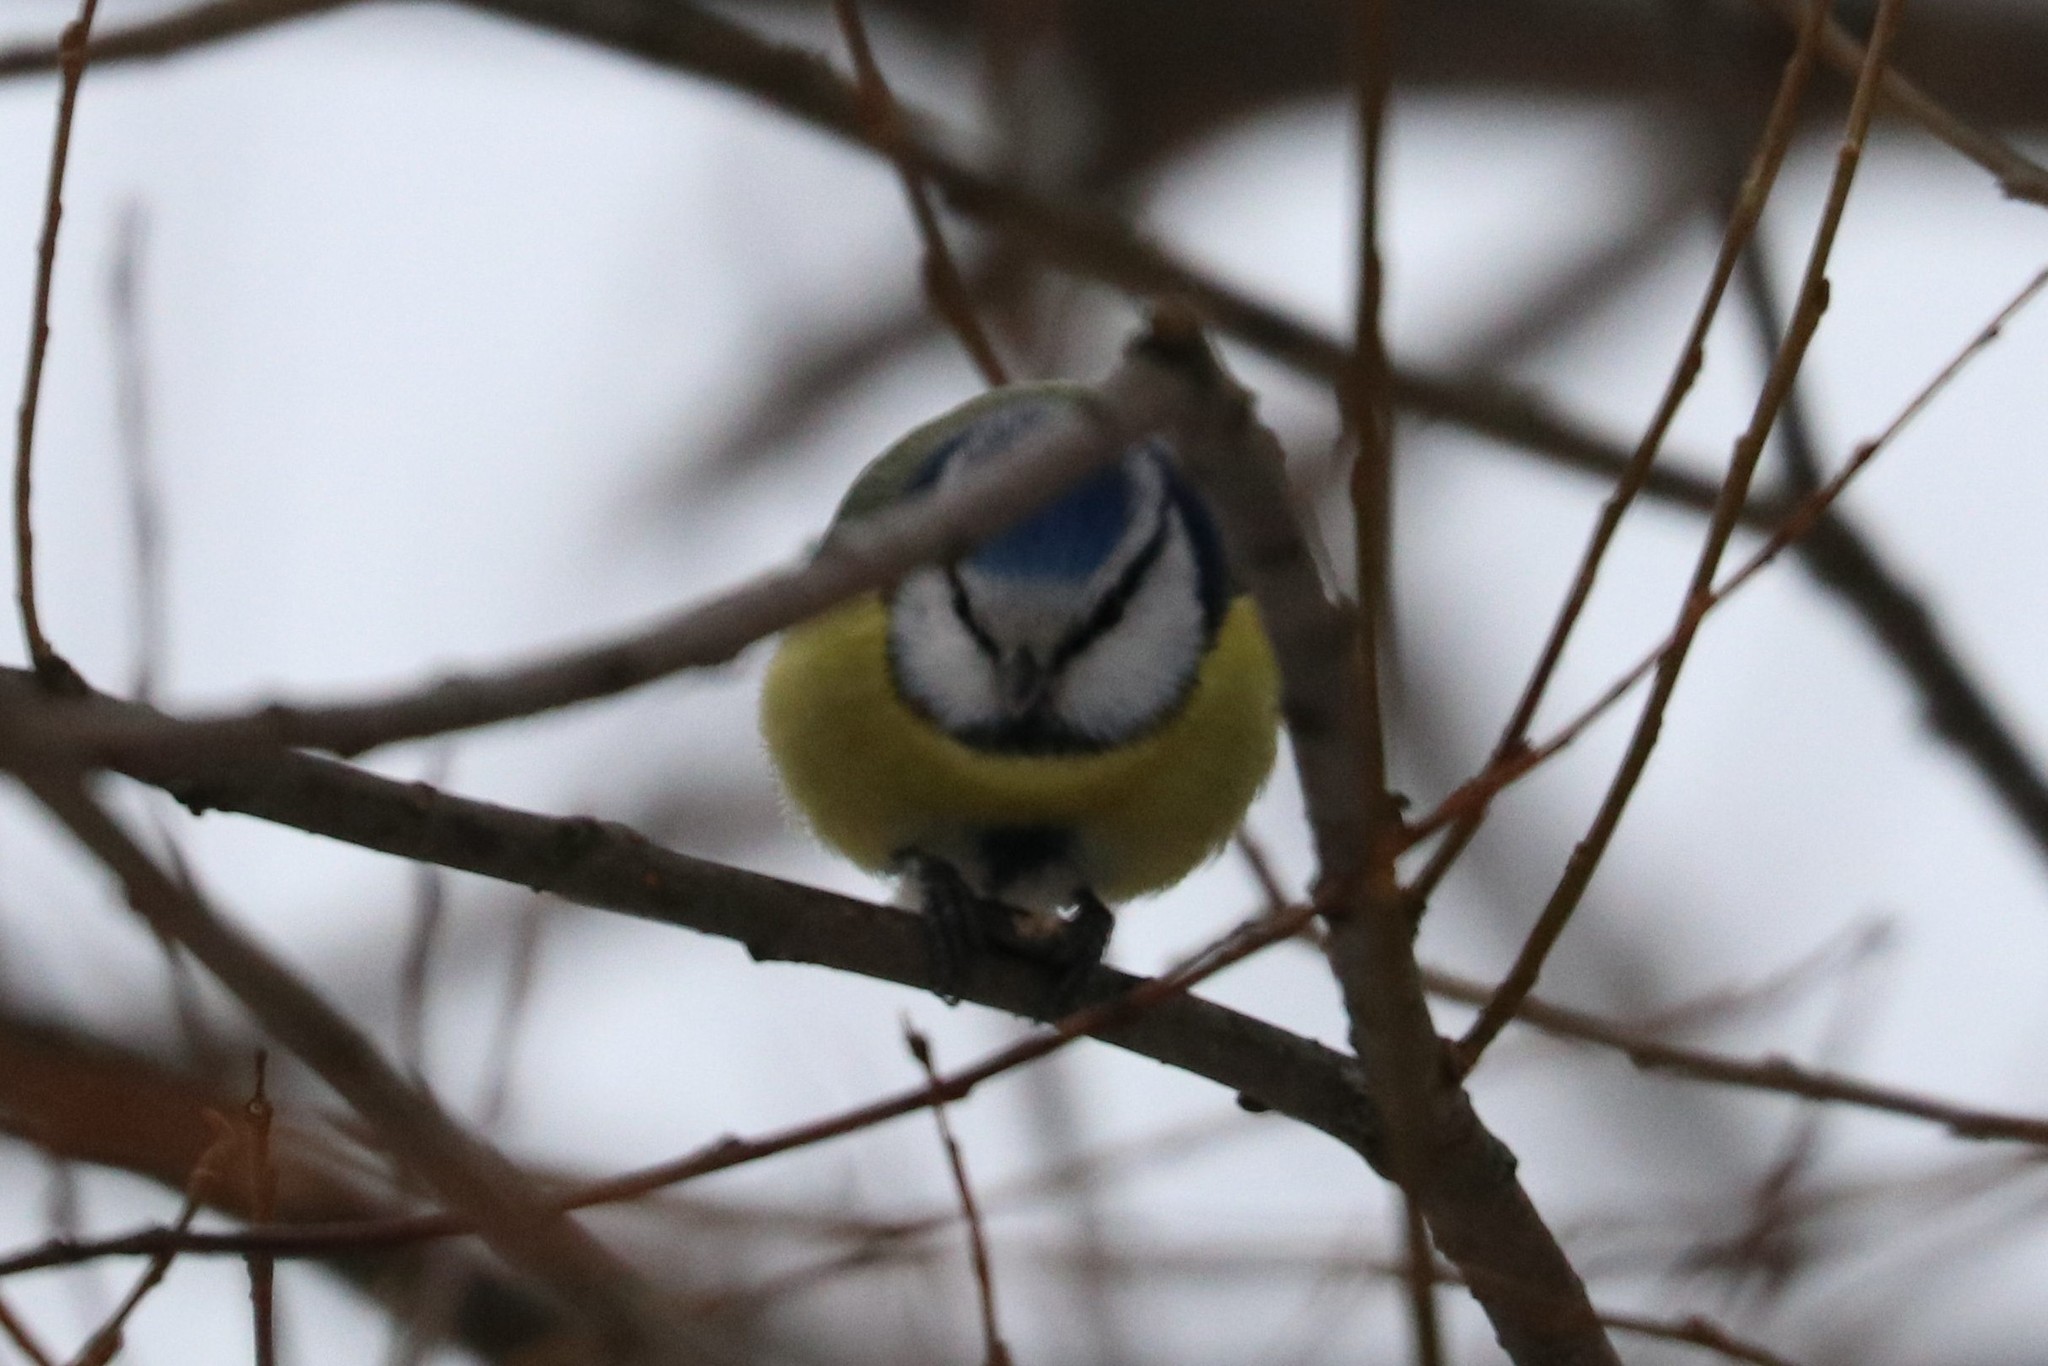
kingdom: Animalia
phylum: Chordata
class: Aves
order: Passeriformes
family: Paridae
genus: Cyanistes
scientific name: Cyanistes caeruleus
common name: Eurasian blue tit
